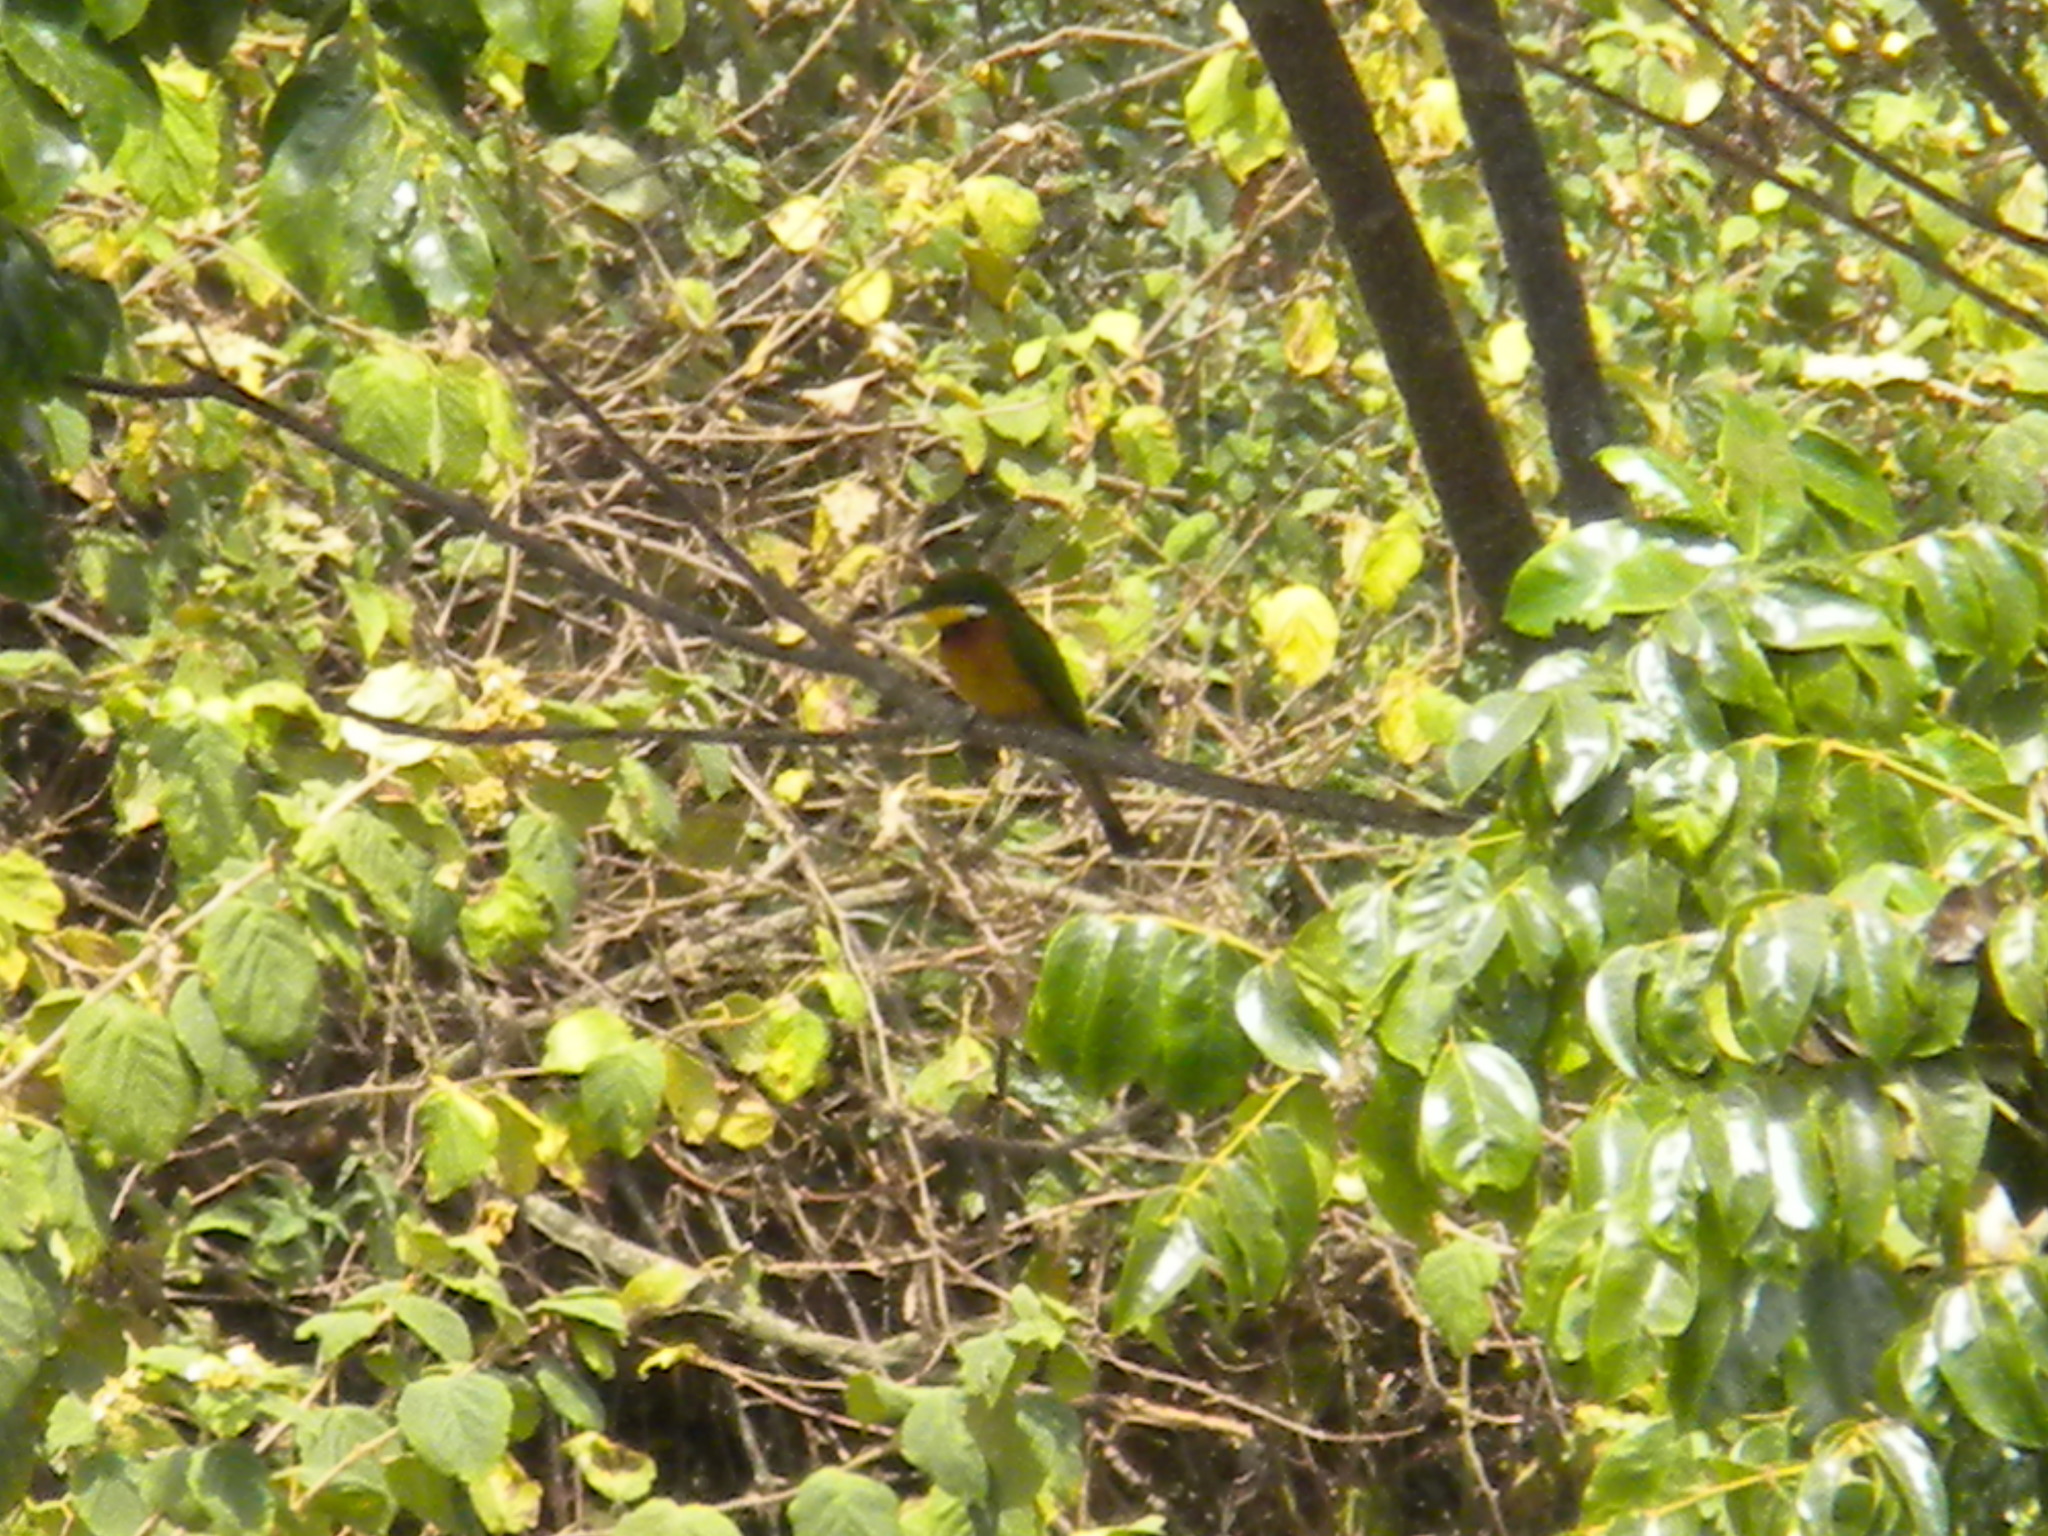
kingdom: Animalia
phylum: Chordata
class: Aves
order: Coraciiformes
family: Meropidae
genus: Merops
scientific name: Merops oreobates
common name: Cinnamon-chested bee-eater
